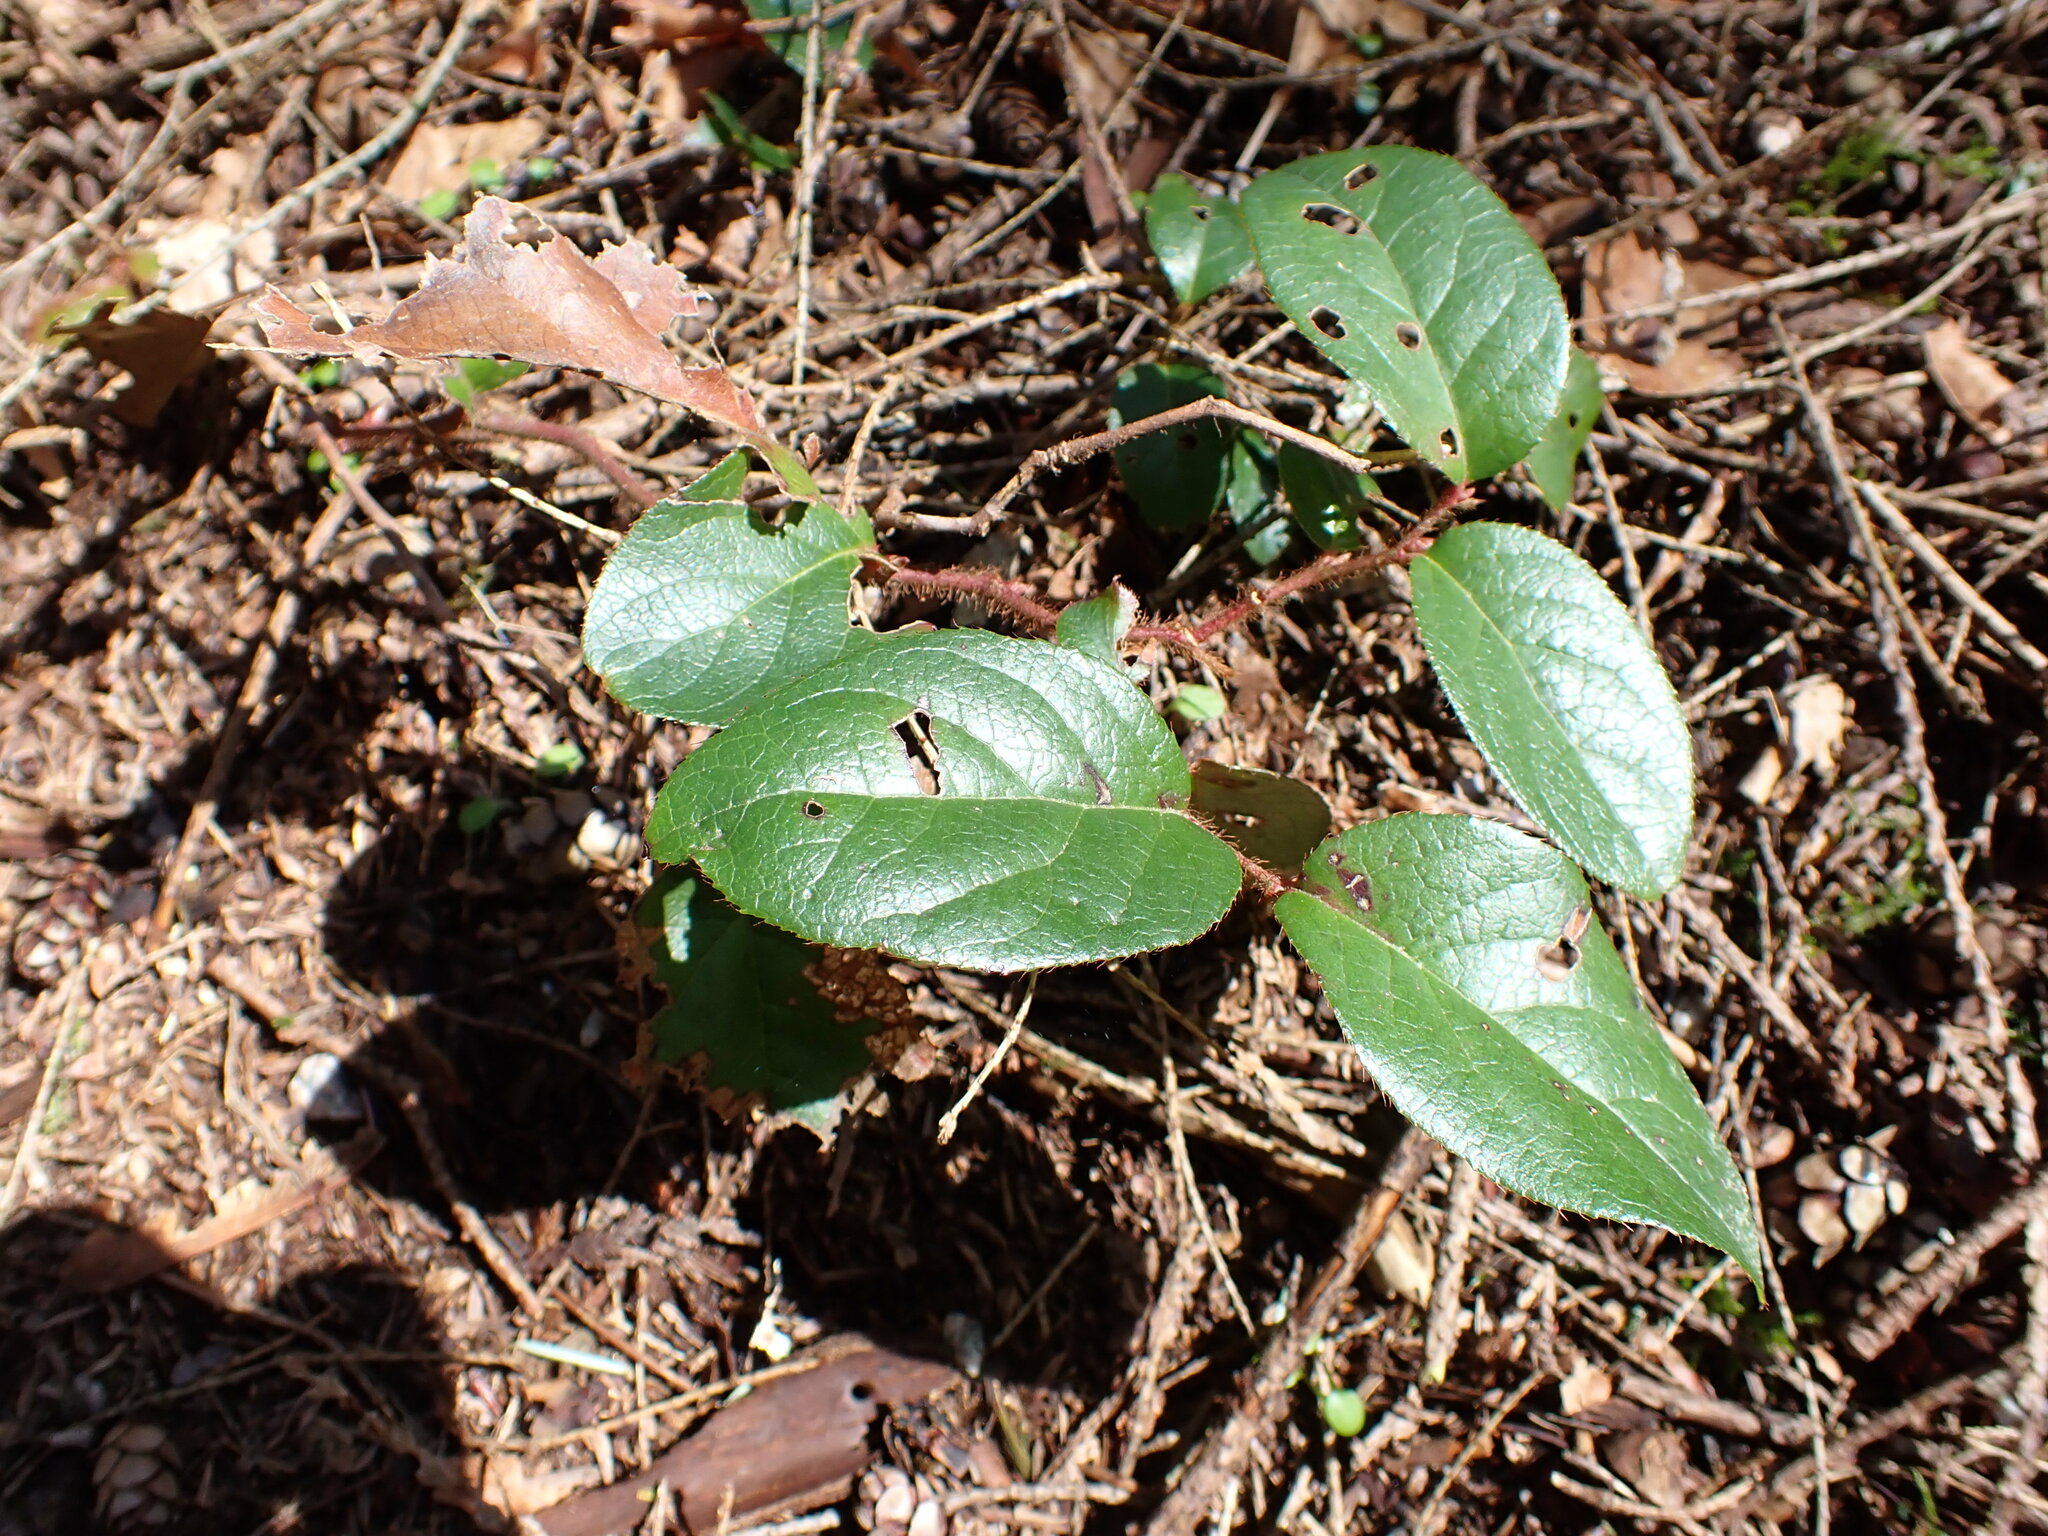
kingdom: Plantae
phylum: Tracheophyta
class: Magnoliopsida
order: Ericales
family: Ericaceae
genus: Gaultheria
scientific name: Gaultheria shallon
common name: Shallon
